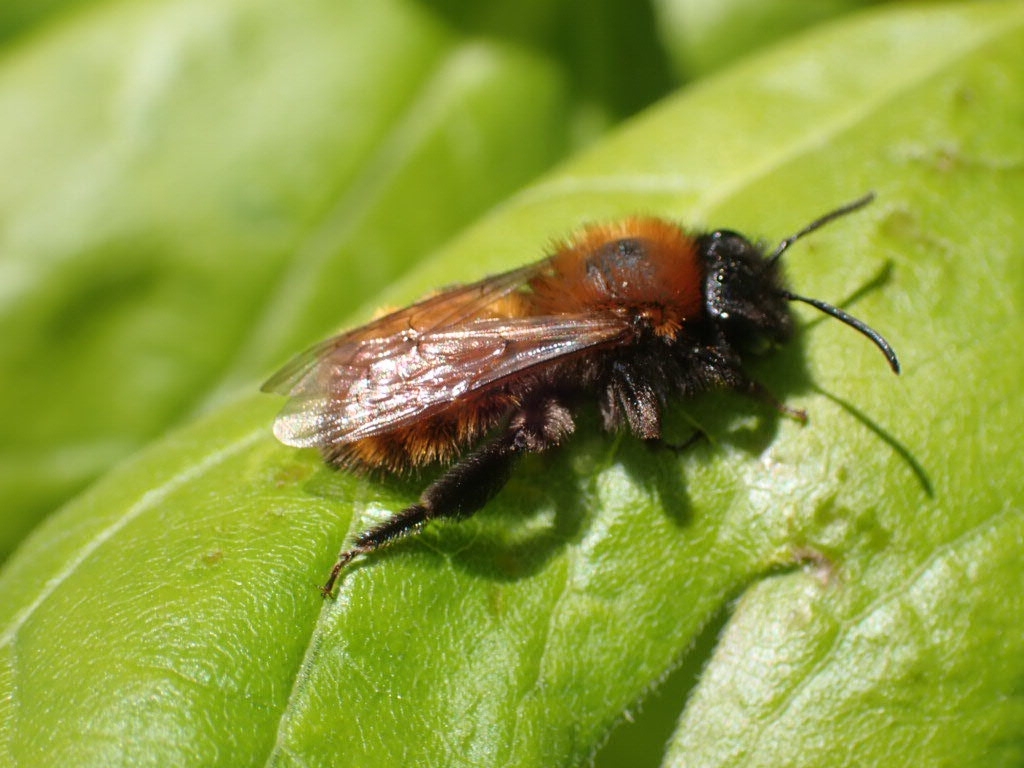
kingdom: Animalia
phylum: Arthropoda
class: Insecta
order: Hymenoptera
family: Andrenidae
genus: Andrena
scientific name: Andrena fulva
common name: Tawny mining bee
